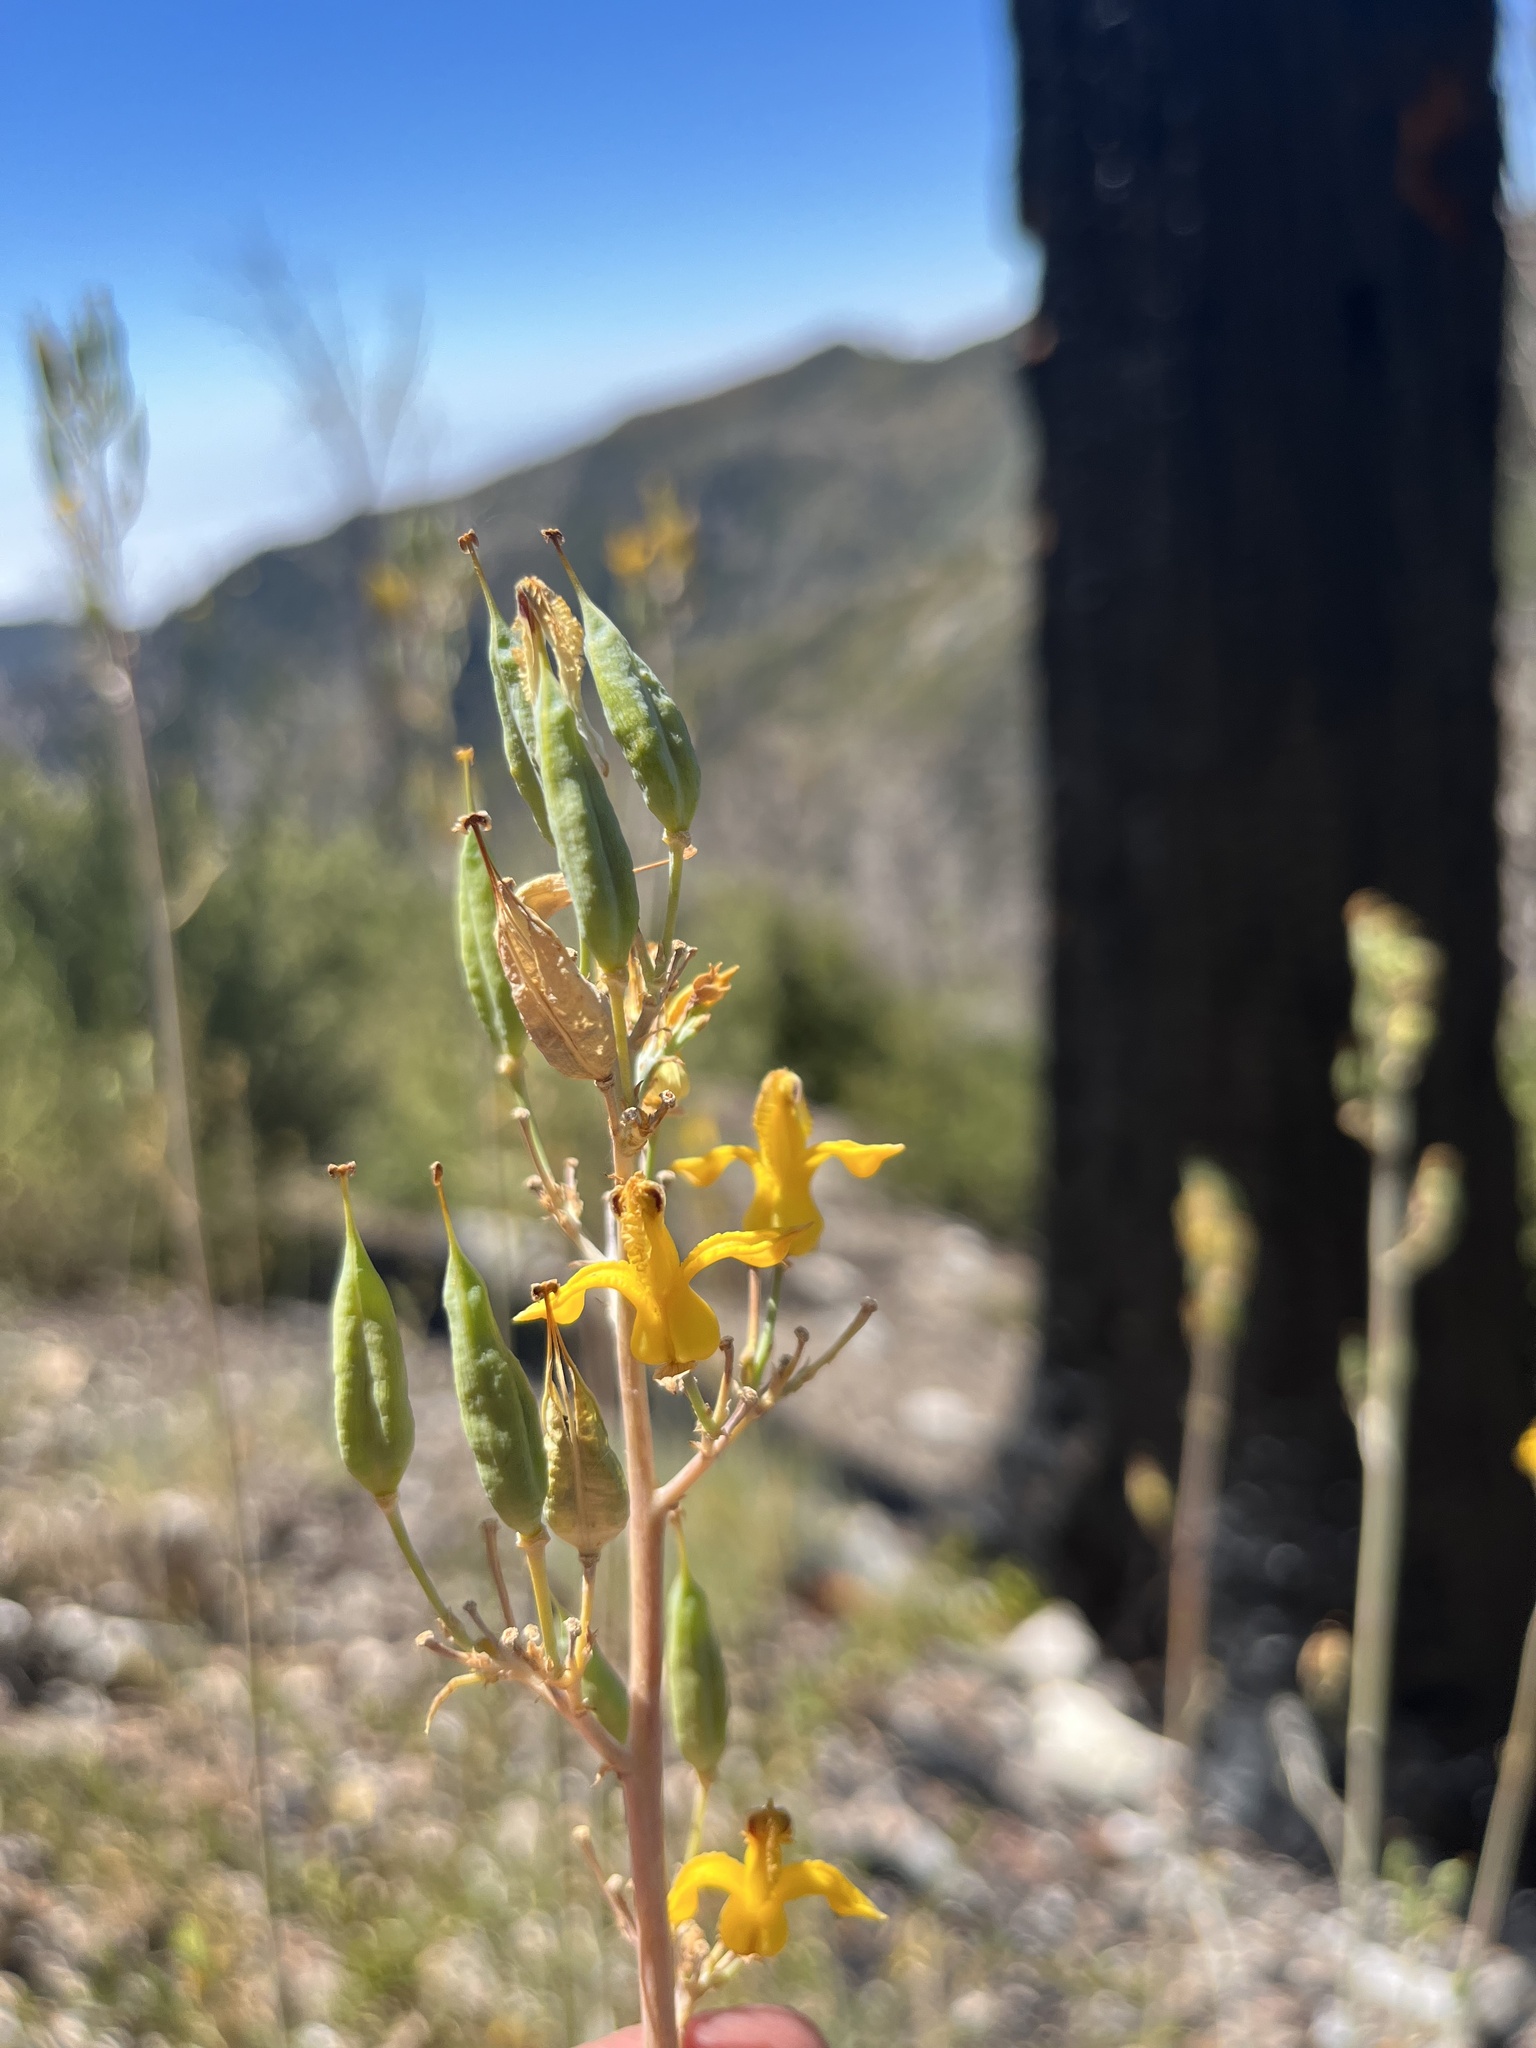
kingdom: Plantae
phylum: Tracheophyta
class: Magnoliopsida
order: Ranunculales
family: Papaveraceae
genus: Ehrendorferia
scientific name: Ehrendorferia chrysantha
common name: Golden eardrops
